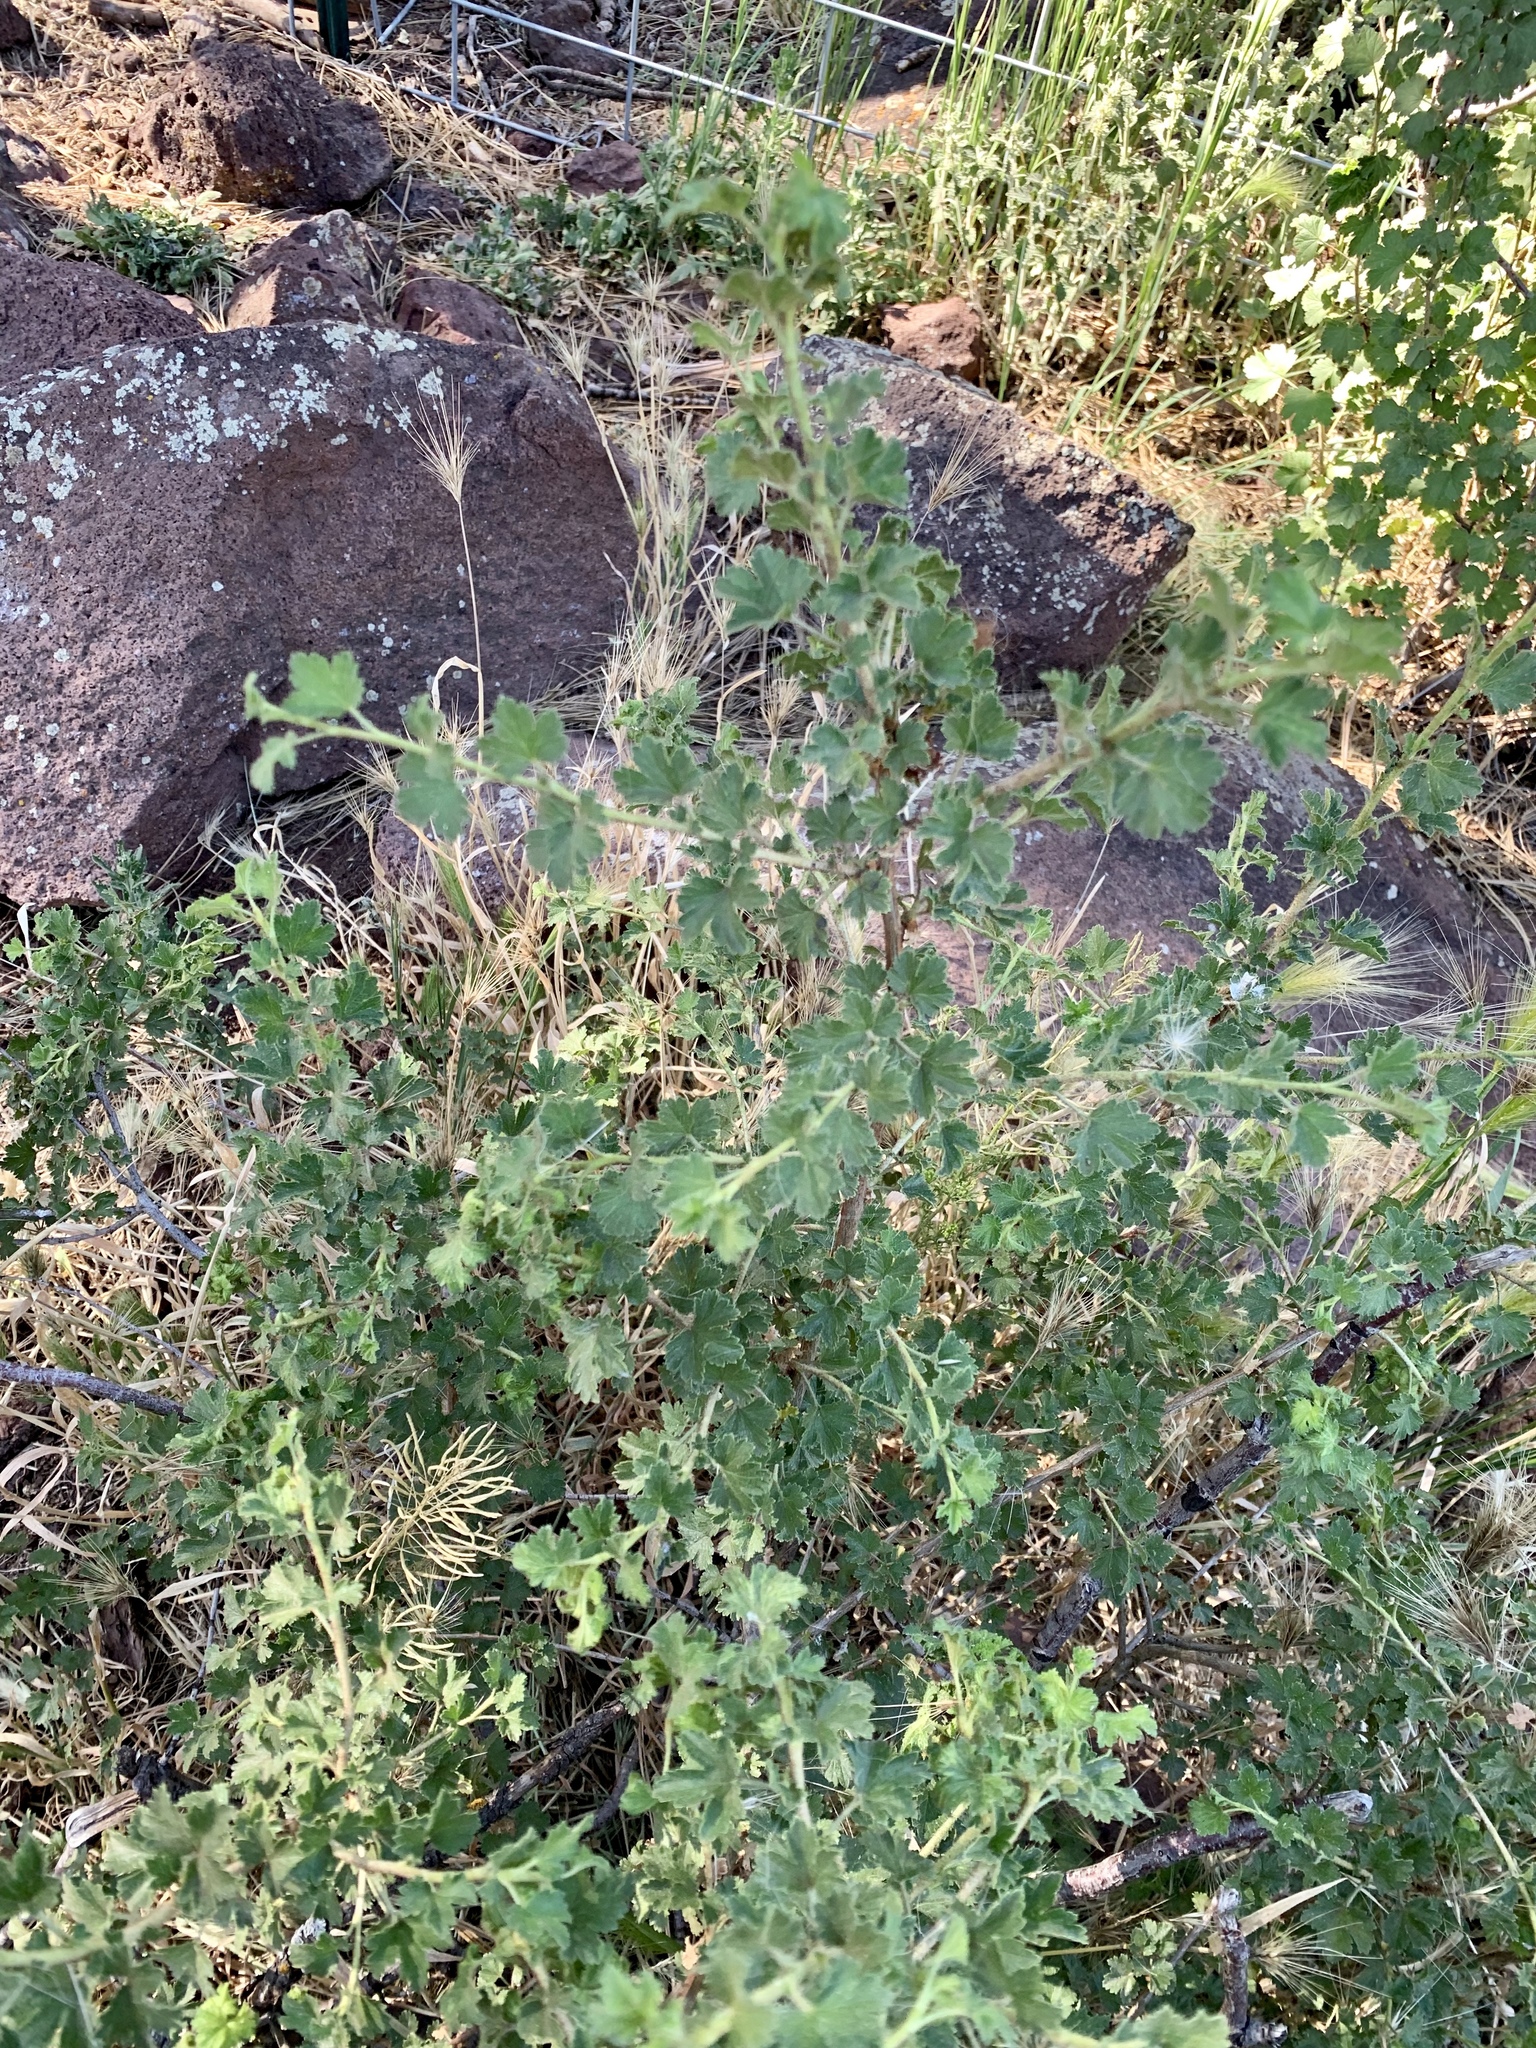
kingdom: Plantae
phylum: Tracheophyta
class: Magnoliopsida
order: Saxifragales
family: Grossulariaceae
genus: Ribes
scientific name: Ribes cereum
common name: Wax currant
